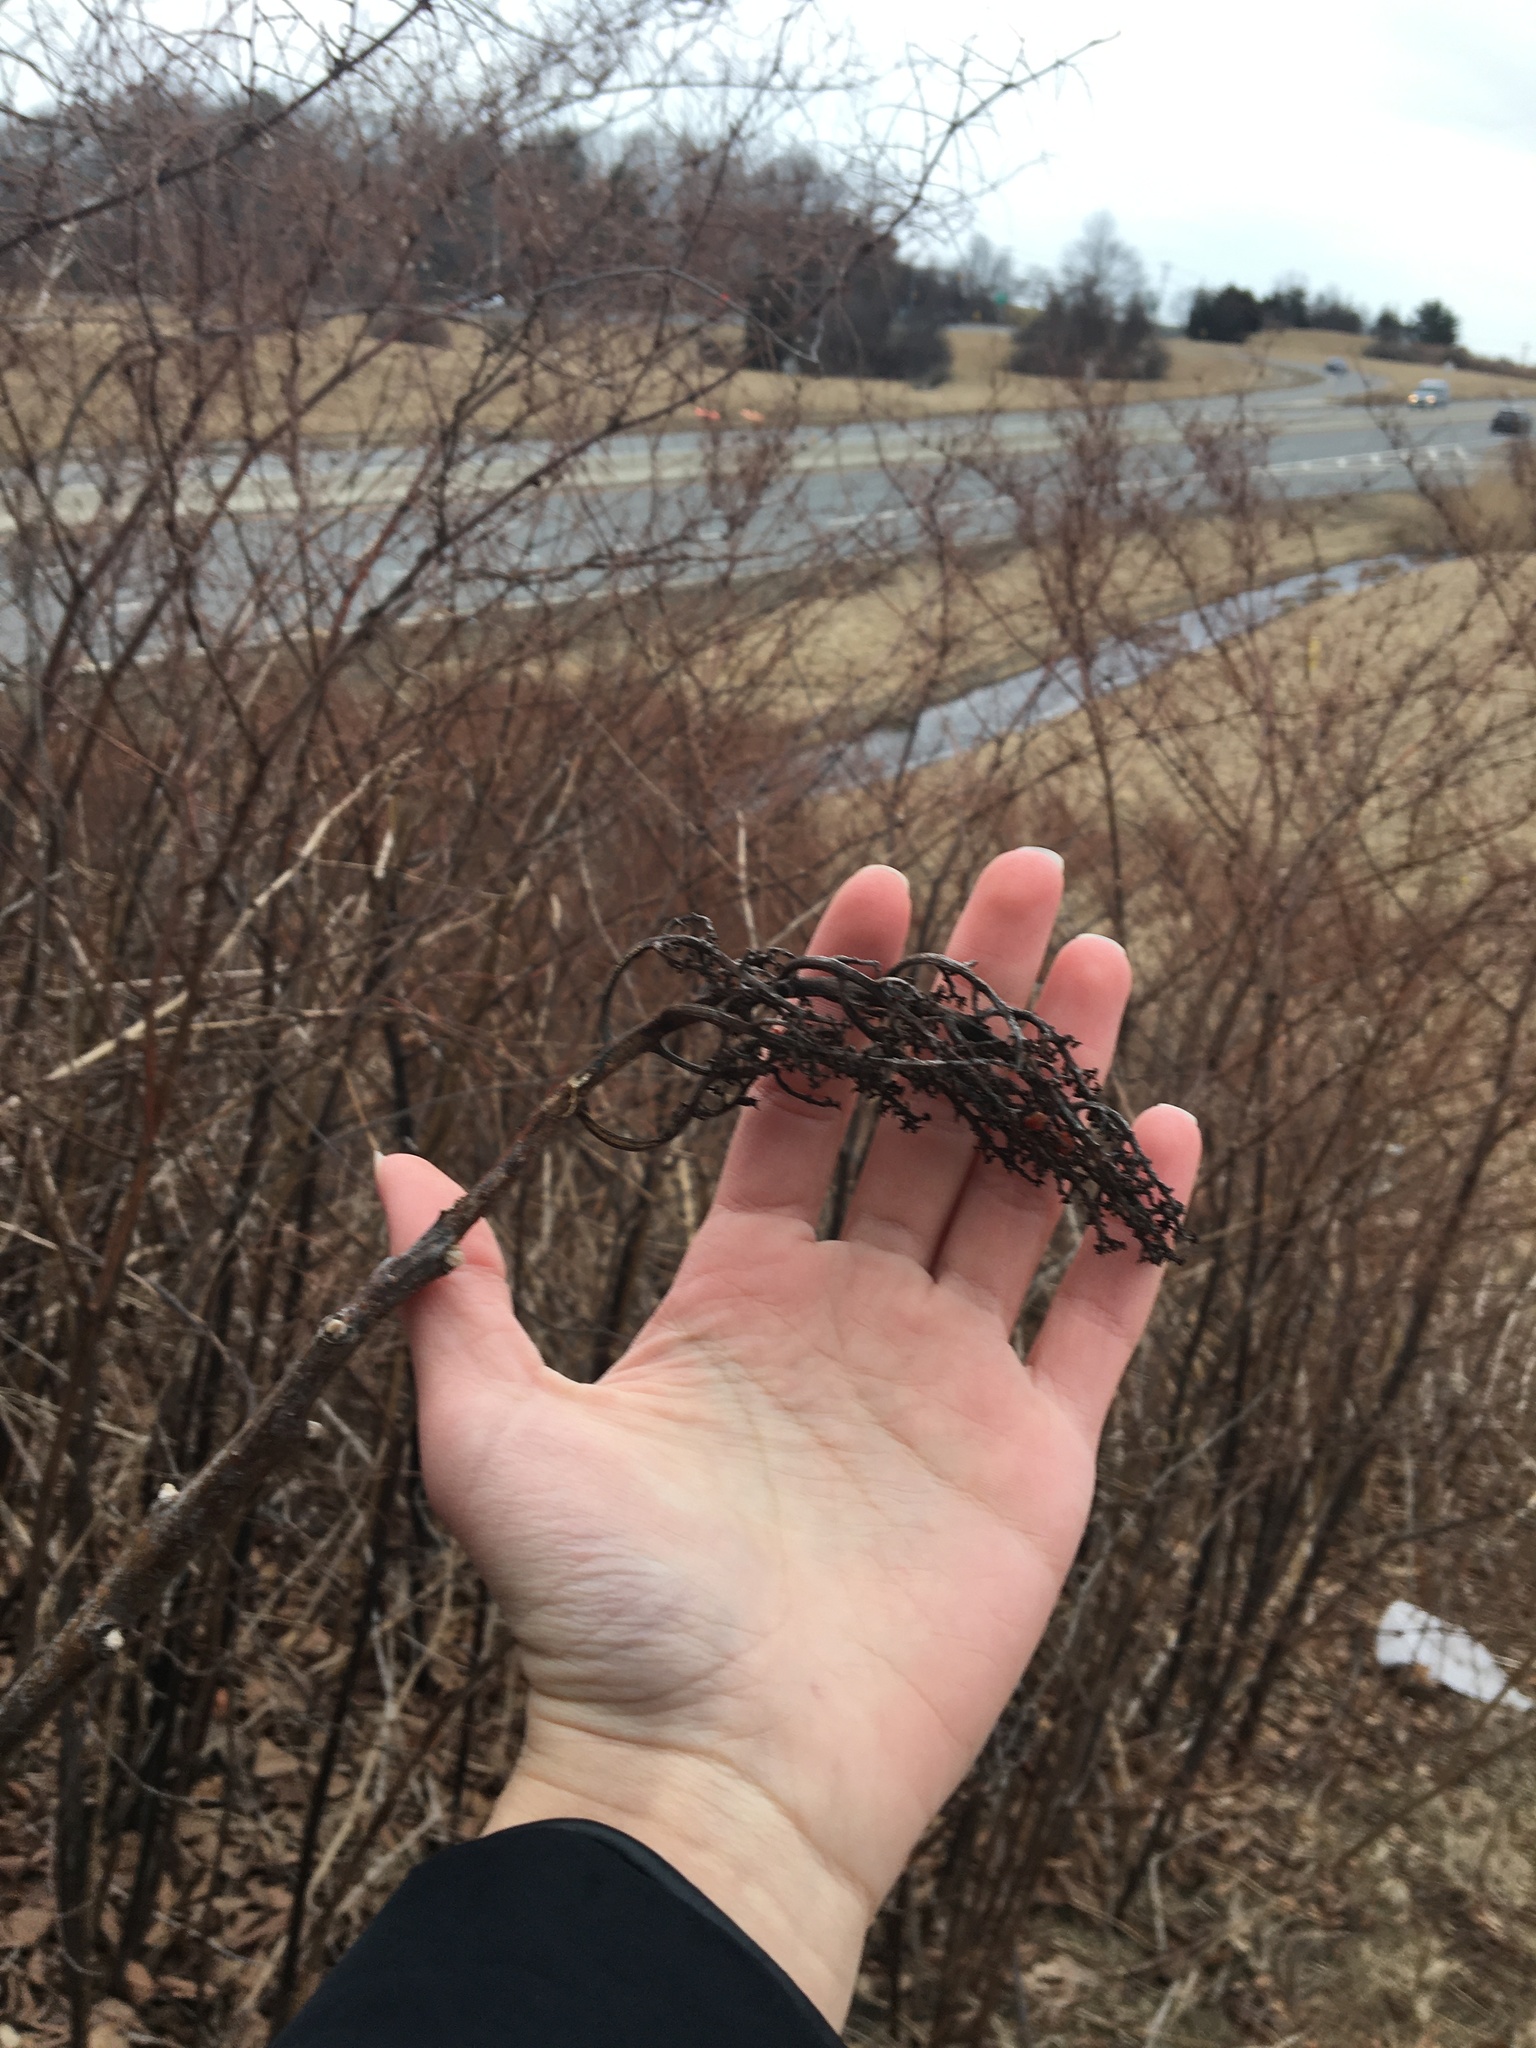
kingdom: Plantae
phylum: Tracheophyta
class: Magnoliopsida
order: Sapindales
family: Anacardiaceae
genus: Rhus
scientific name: Rhus glabra
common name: Scarlet sumac
